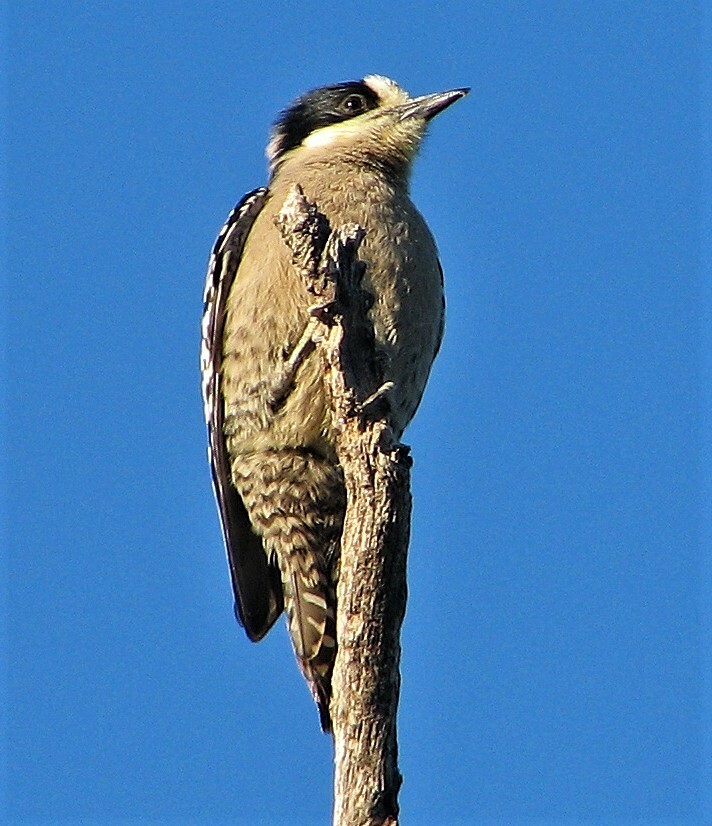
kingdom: Animalia
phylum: Chordata
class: Aves
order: Piciformes
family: Picidae
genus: Melanerpes
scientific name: Melanerpes cactorum
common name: White-fronted woodpecker
